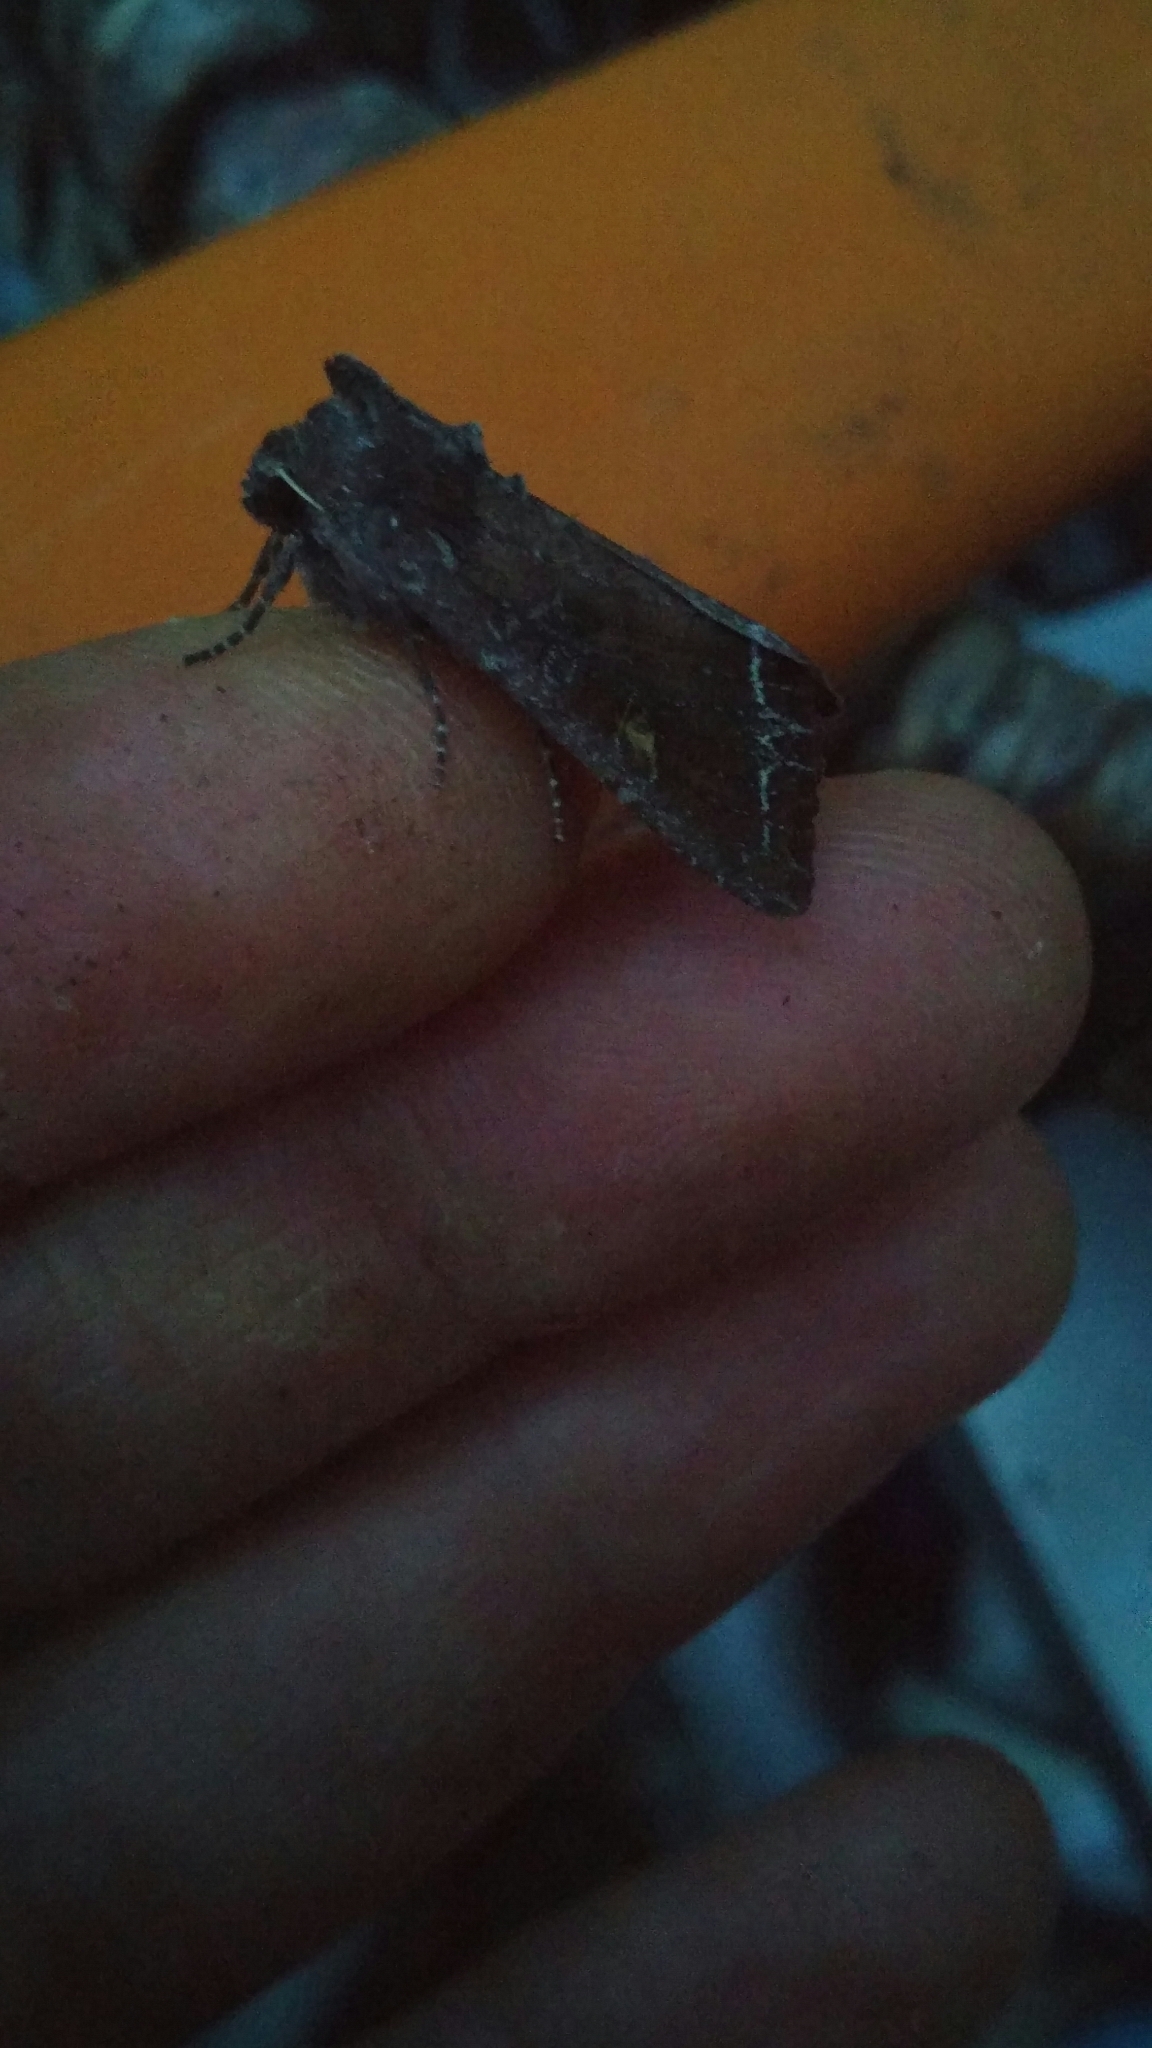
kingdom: Animalia
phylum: Arthropoda
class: Insecta
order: Lepidoptera
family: Noctuidae
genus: Lacanobia
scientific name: Lacanobia oleracea
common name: Bright-line brown-eye
